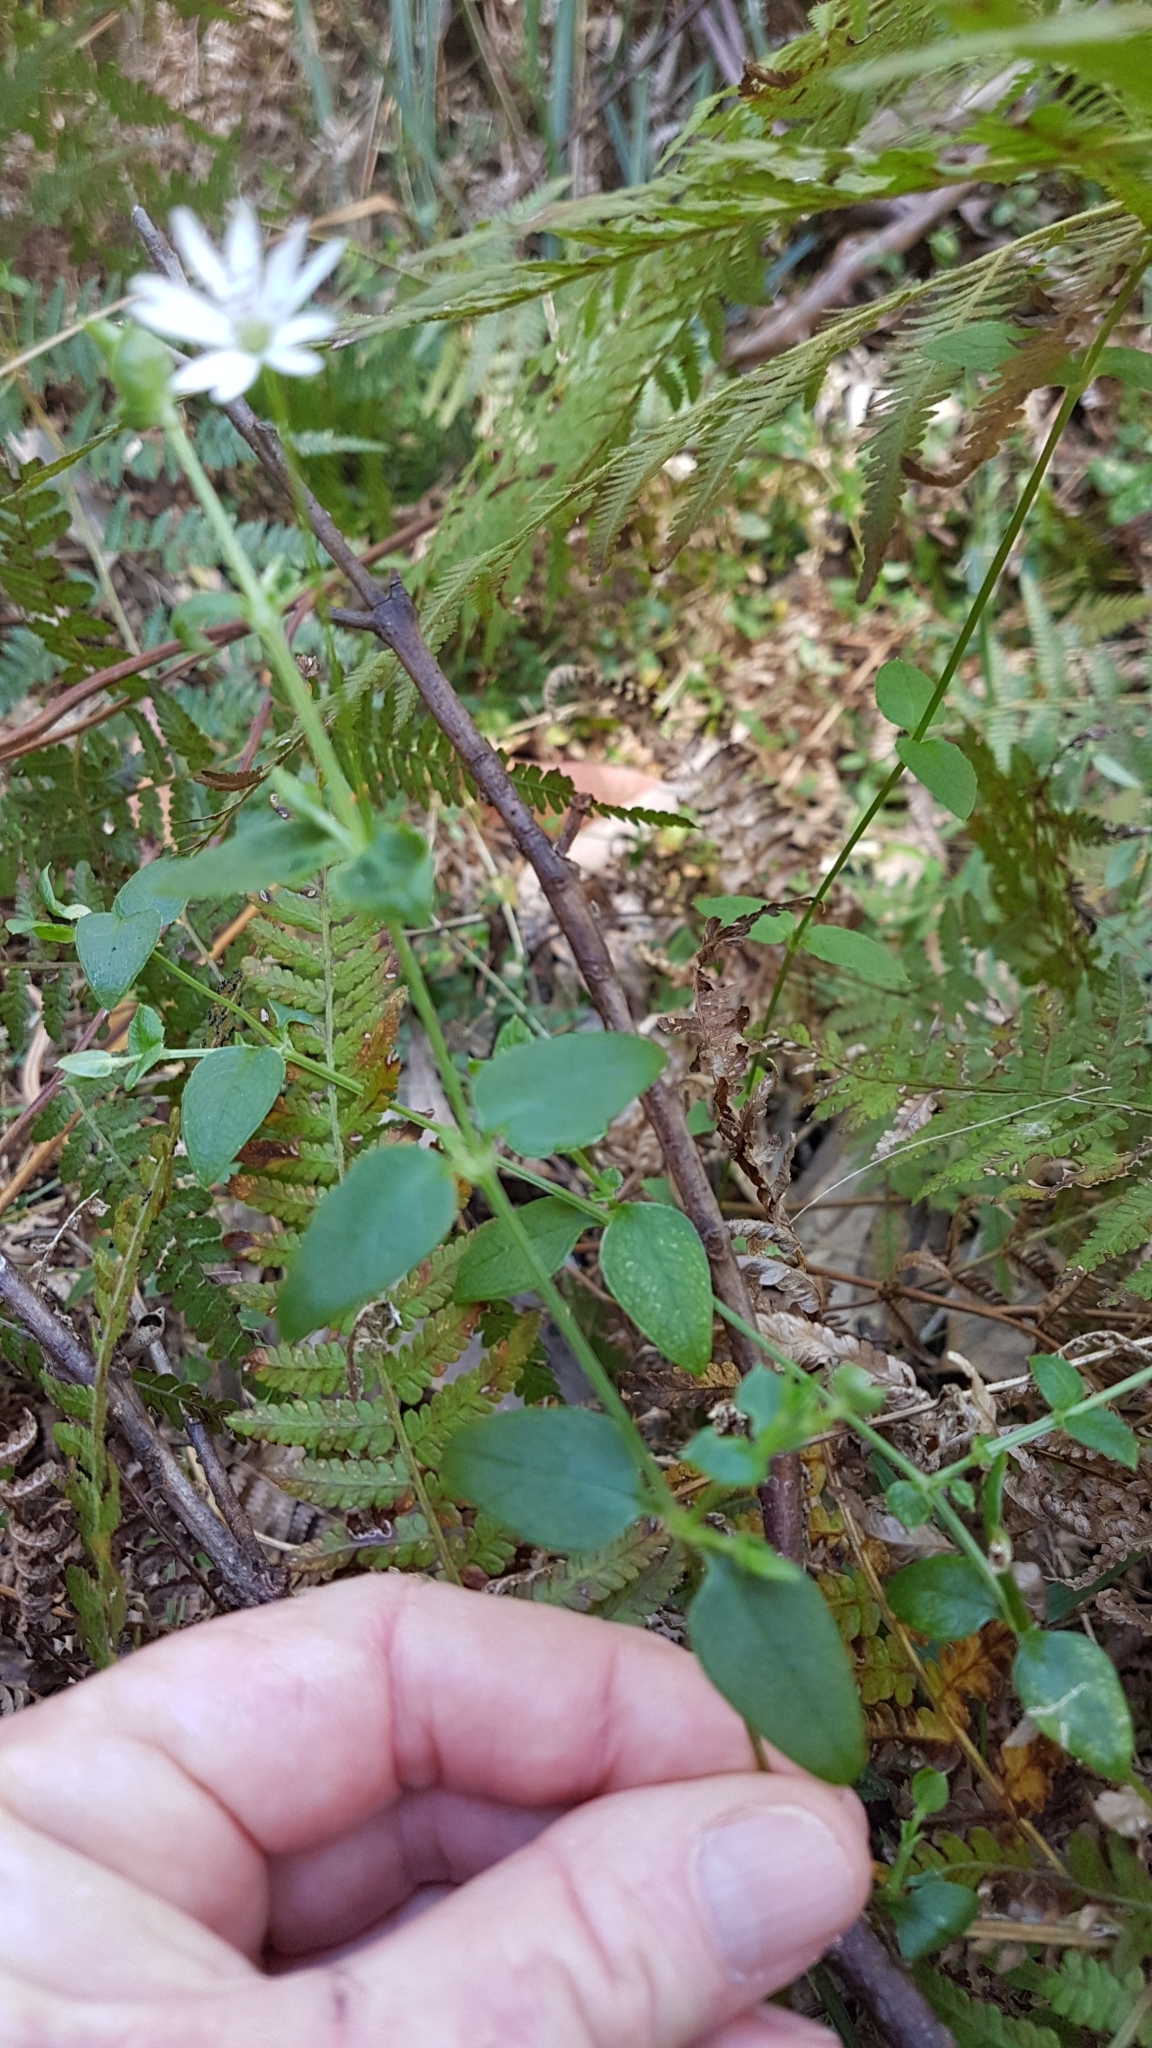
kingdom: Plantae
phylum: Tracheophyta
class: Magnoliopsida
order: Caryophyllales
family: Caryophyllaceae
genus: Stellaria
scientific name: Stellaria flaccida
